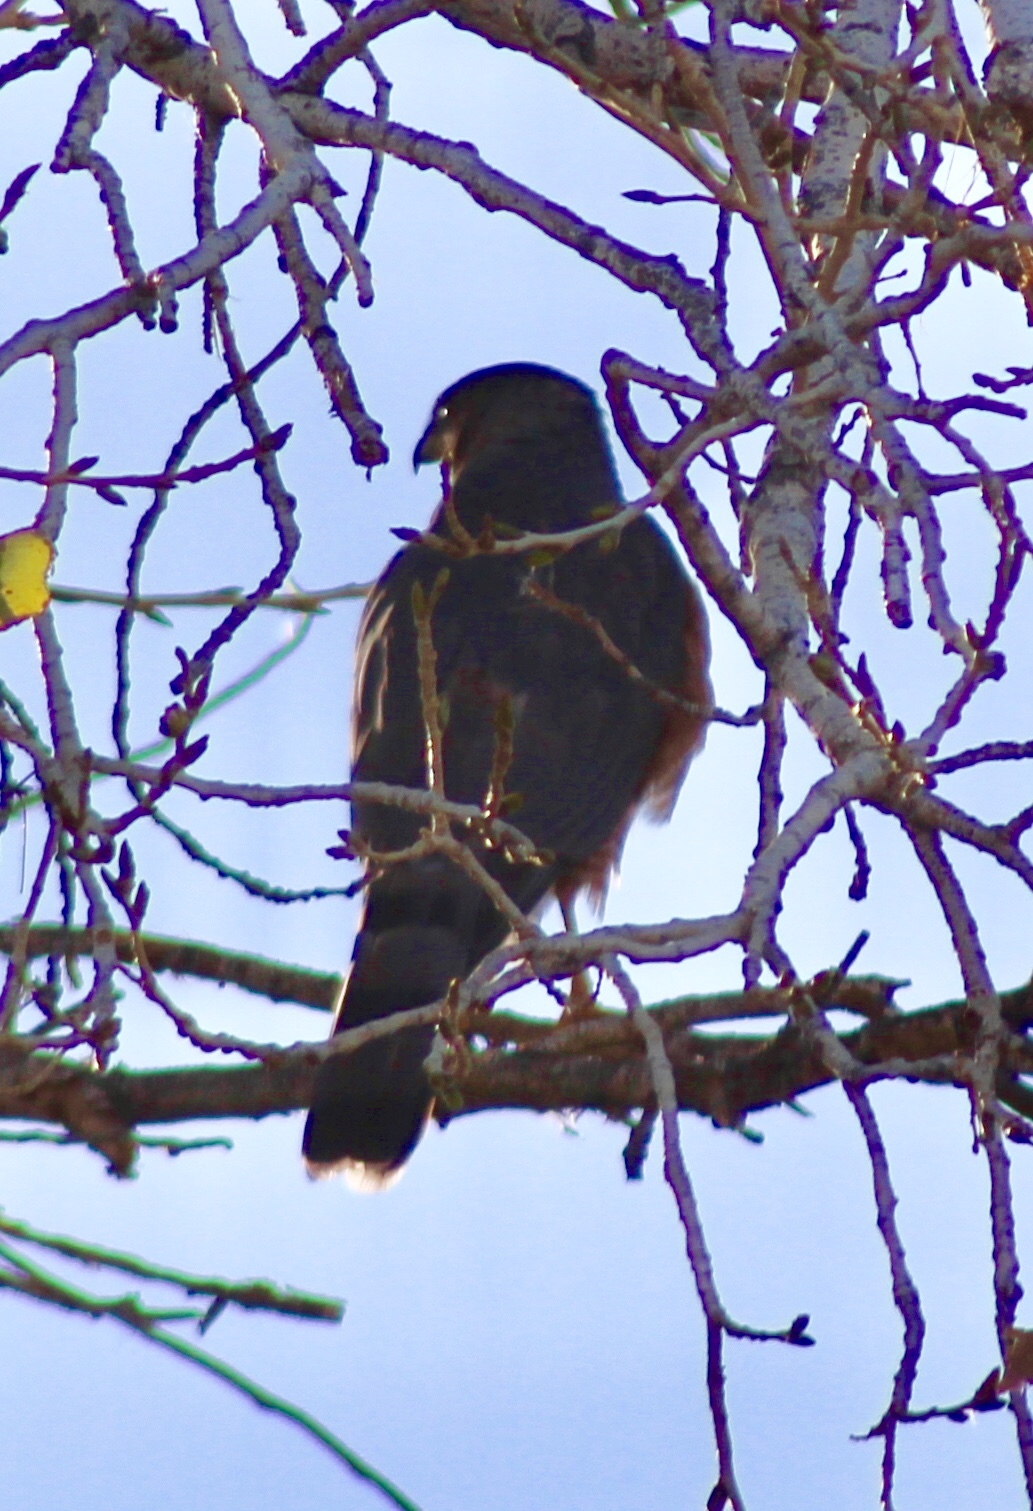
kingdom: Animalia
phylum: Chordata
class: Aves
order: Accipitriformes
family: Accipitridae
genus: Accipiter
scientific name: Accipiter cooperii
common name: Cooper's hawk
